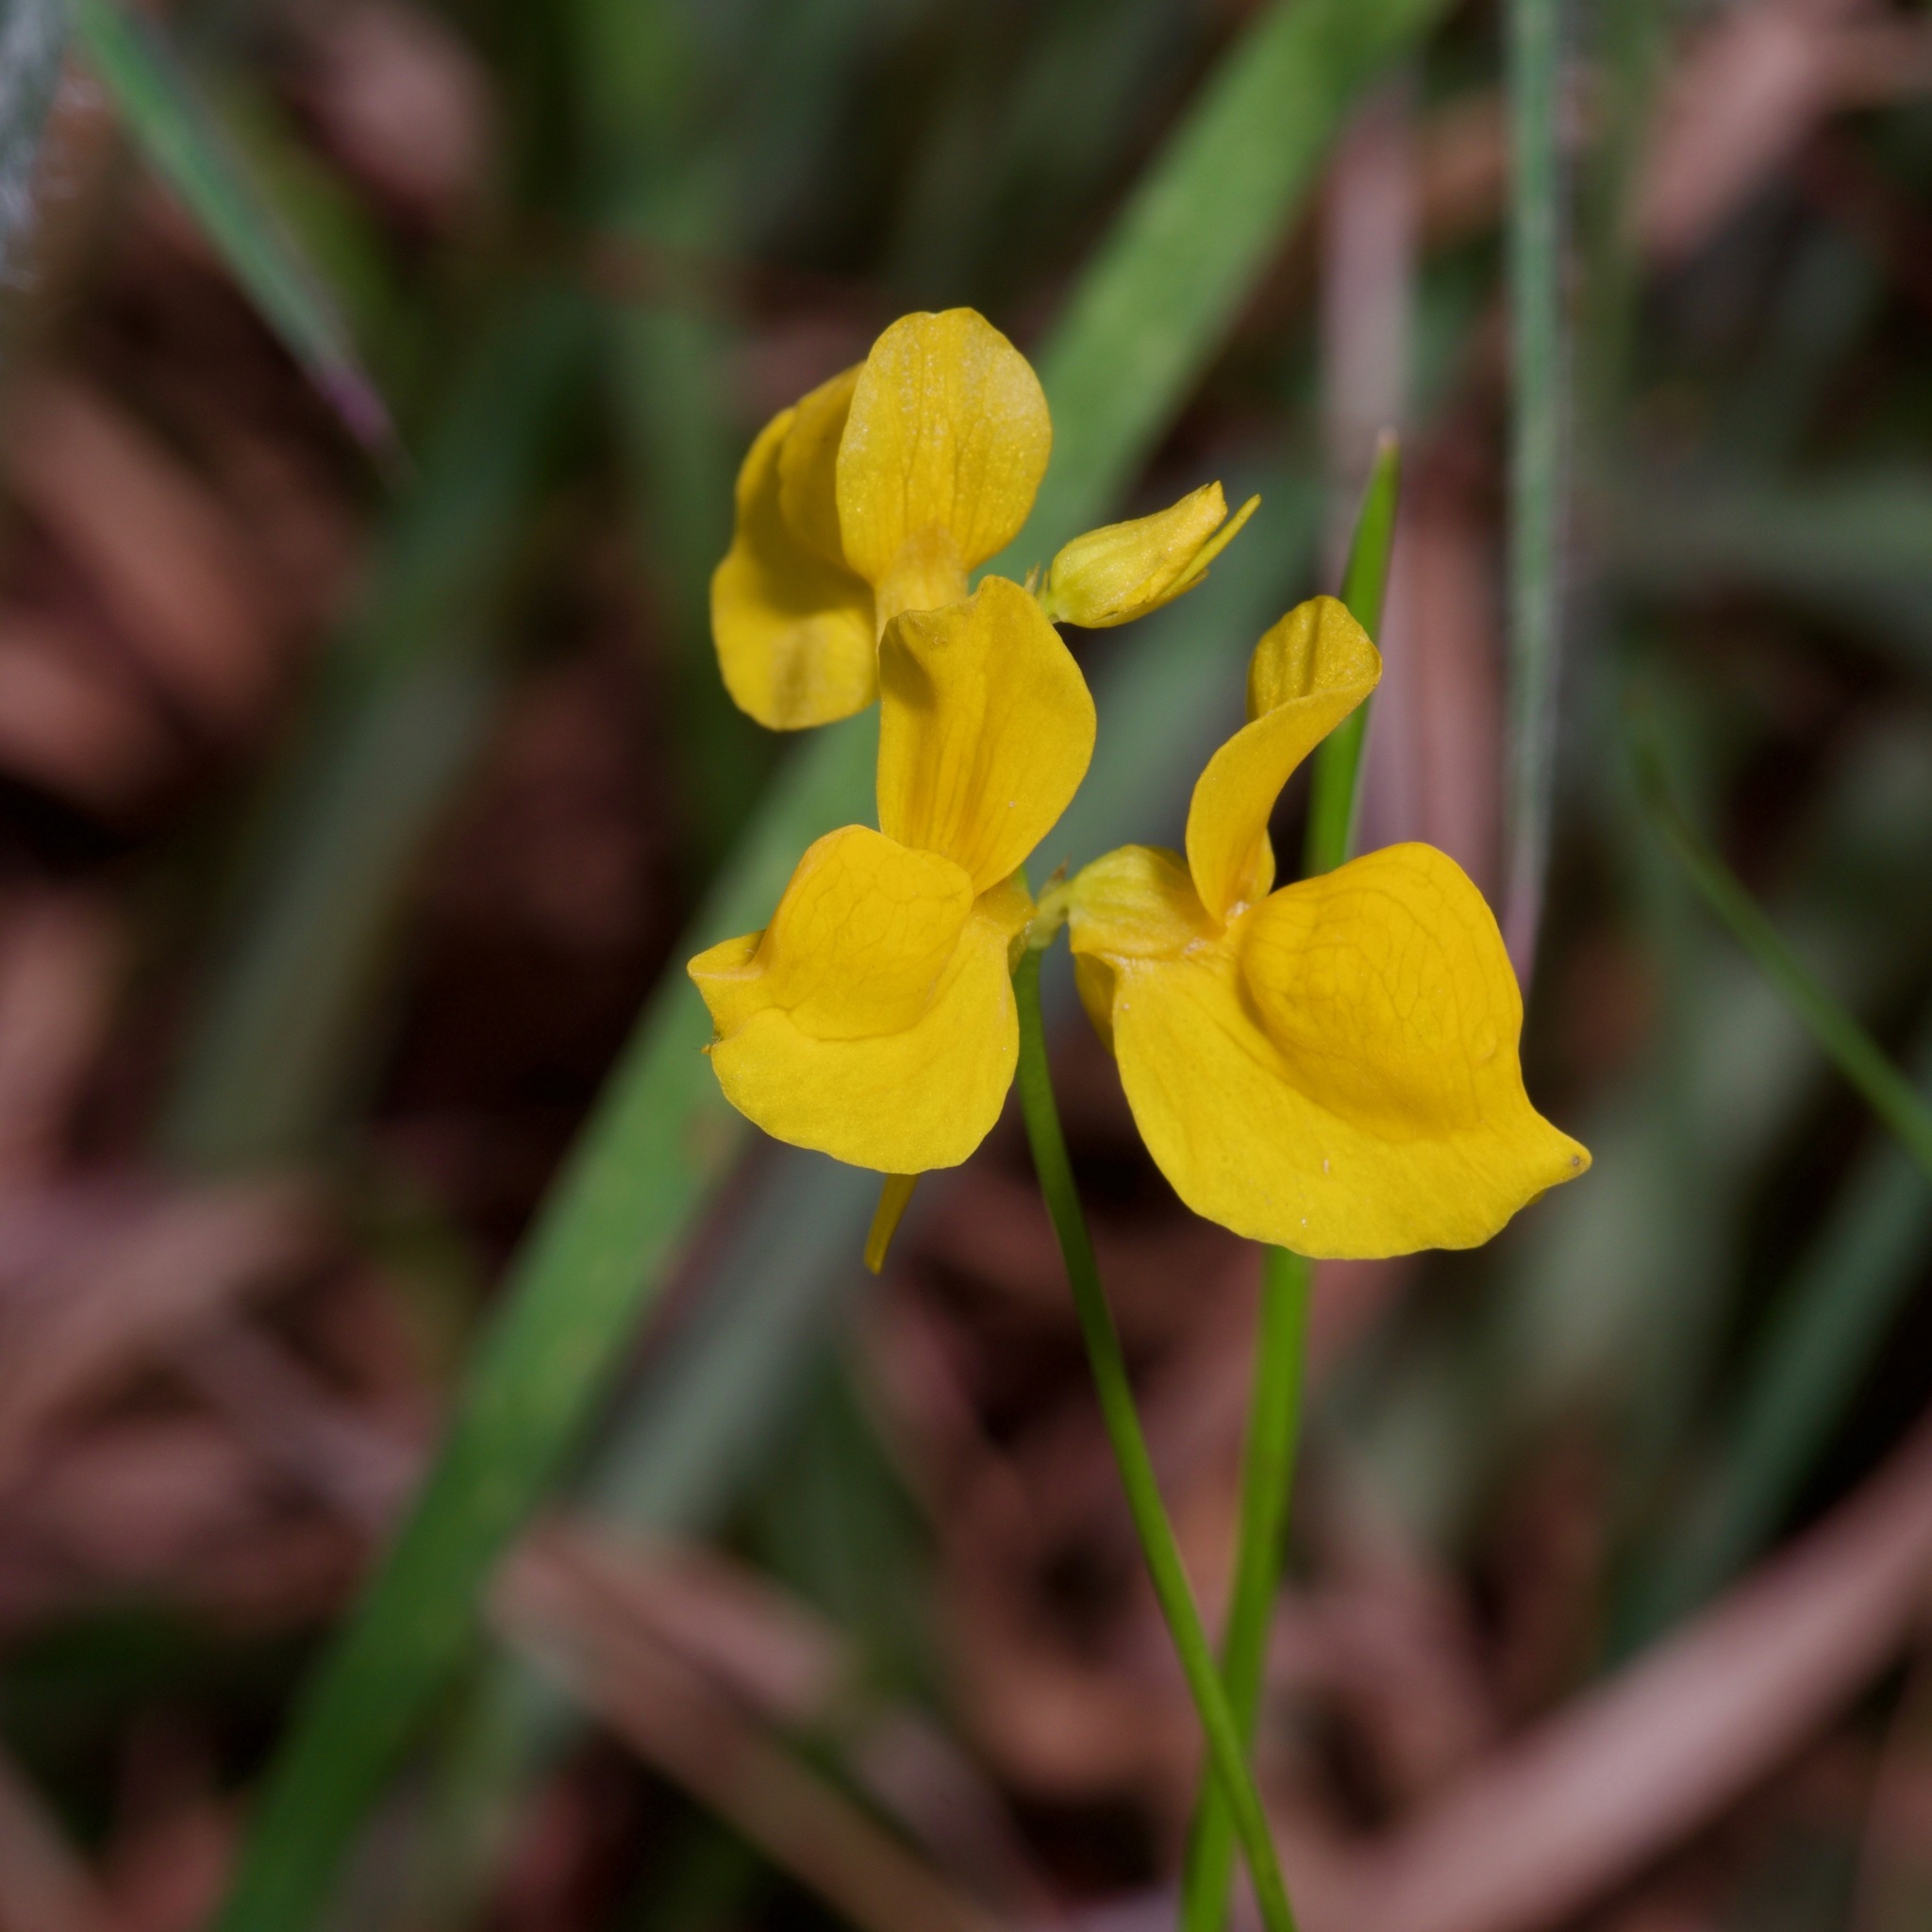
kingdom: Plantae
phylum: Tracheophyta
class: Magnoliopsida
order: Lamiales
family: Lentibulariaceae
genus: Utricularia
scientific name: Utricularia cornuta
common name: Horned bladderwort
